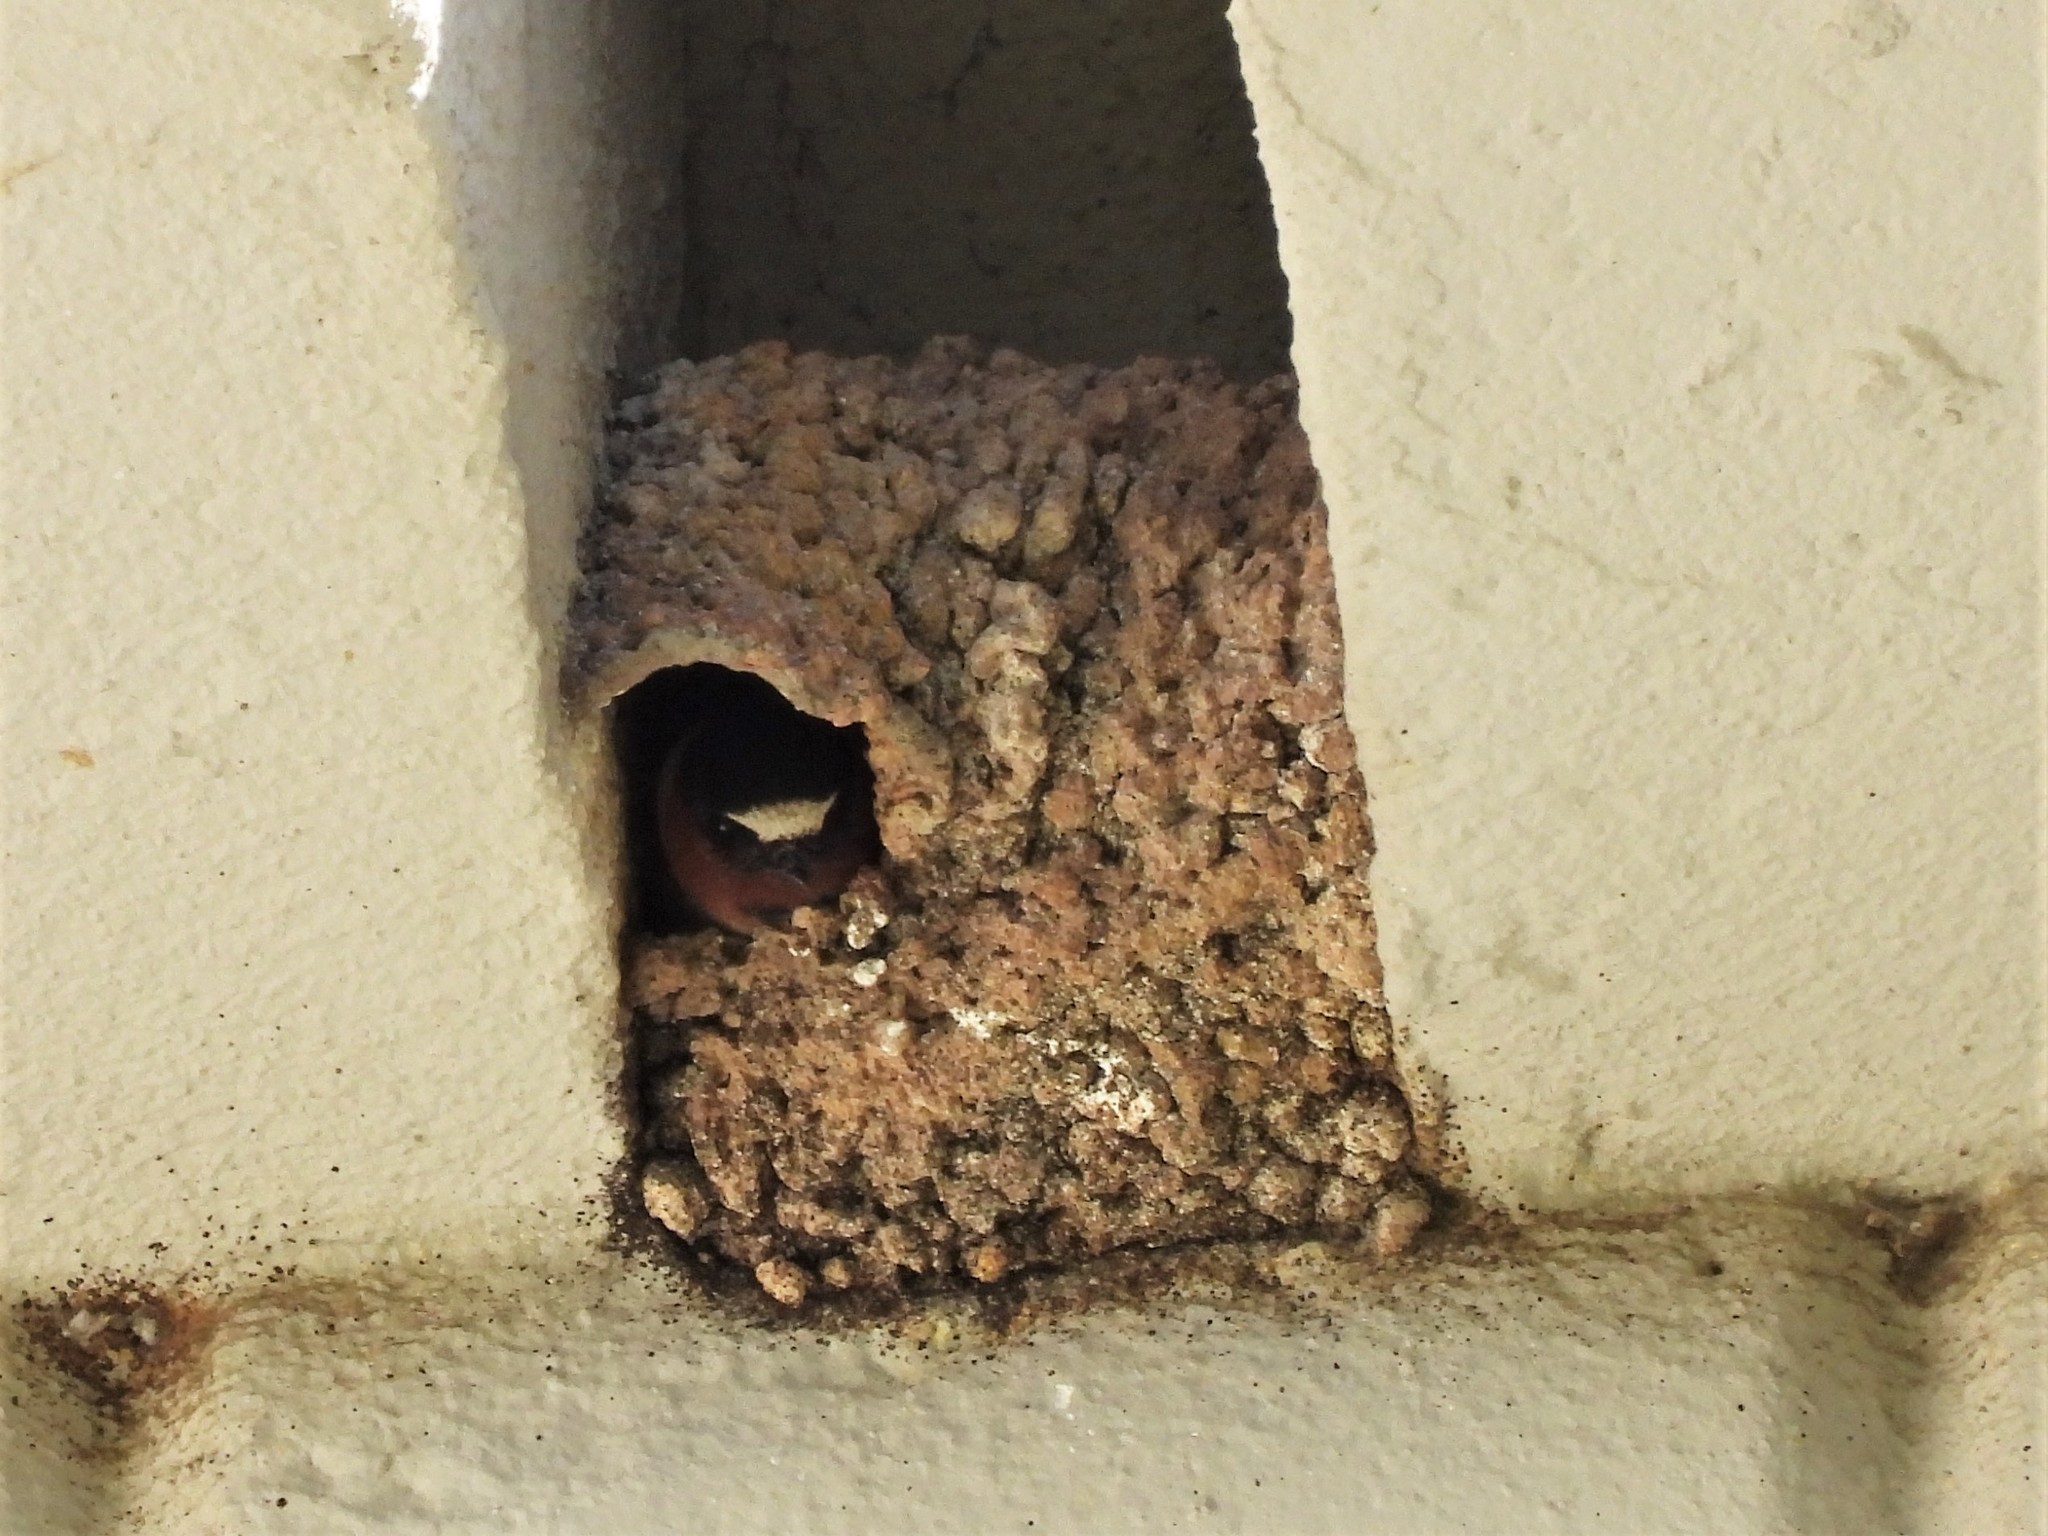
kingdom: Animalia
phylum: Chordata
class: Aves
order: Passeriformes
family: Hirundinidae
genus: Petrochelidon
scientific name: Petrochelidon pyrrhonota
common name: American cliff swallow
